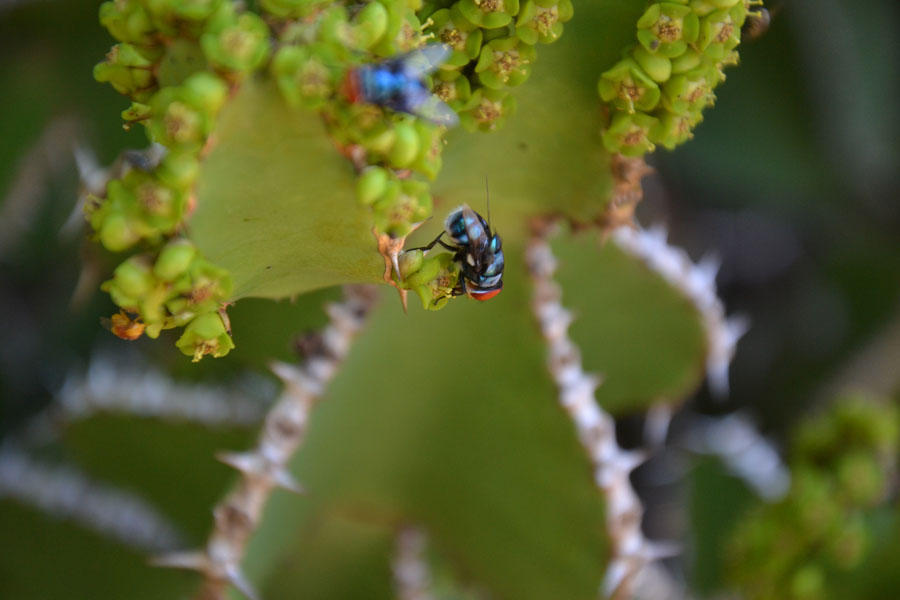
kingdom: Plantae
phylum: Tracheophyta
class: Magnoliopsida
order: Malpighiales
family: Euphorbiaceae
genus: Euphorbia
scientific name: Euphorbia cooperi
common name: Candelabra tree
